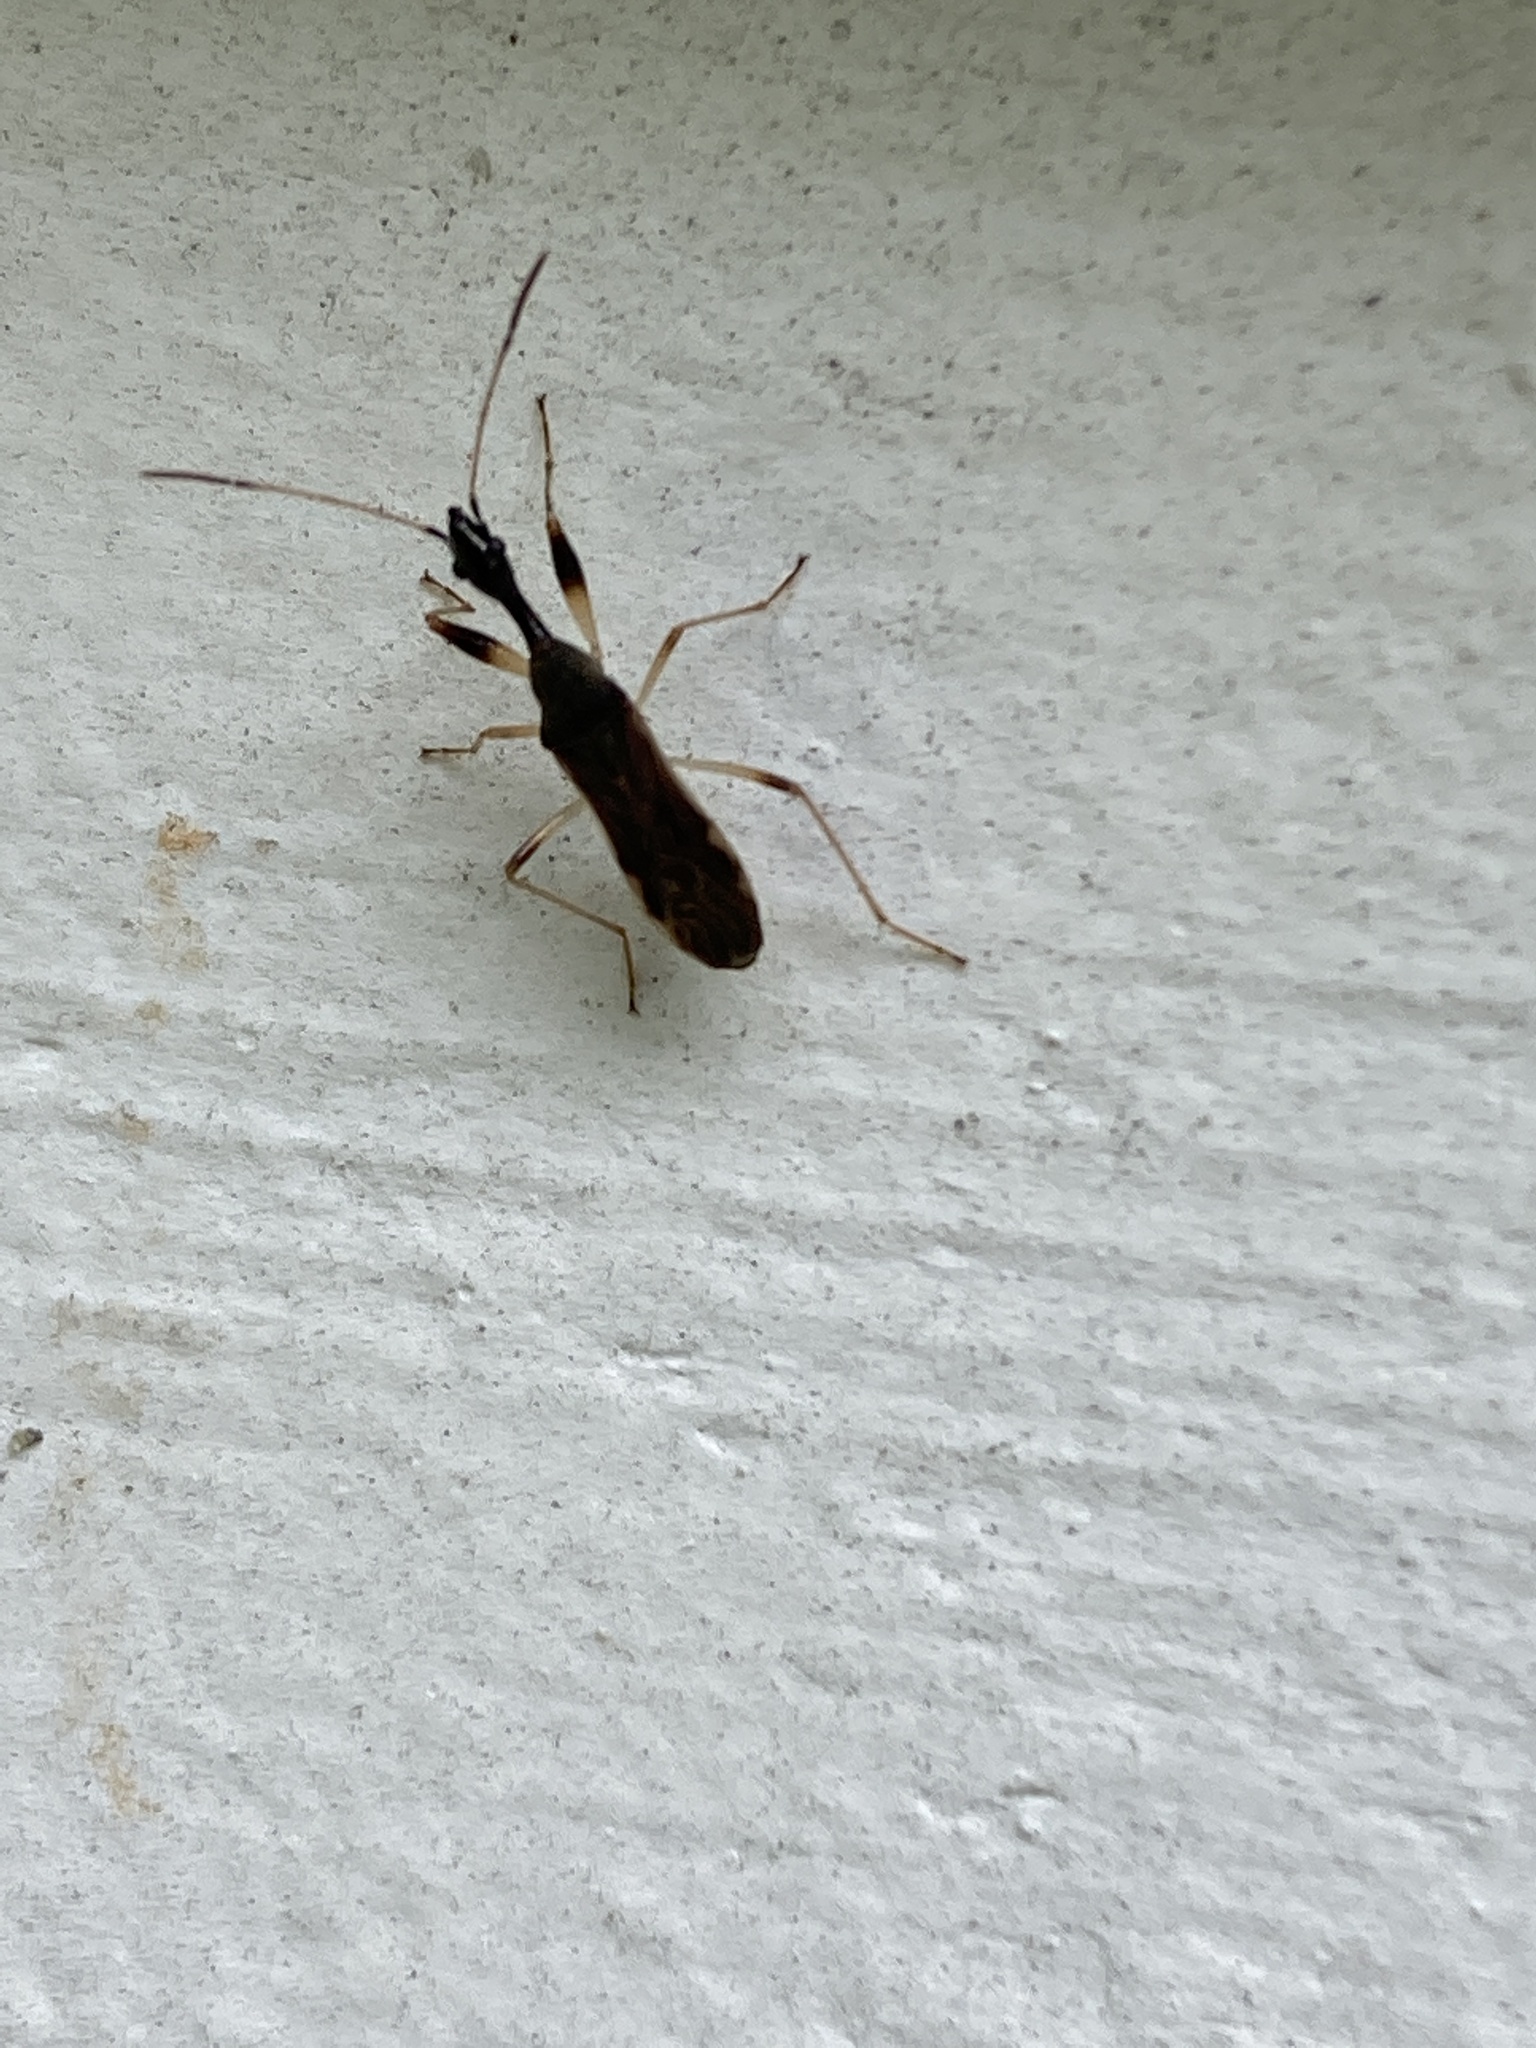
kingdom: Animalia
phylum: Arthropoda
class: Insecta
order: Hemiptera
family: Rhyparochromidae
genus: Myodocha
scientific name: Myodocha serripes
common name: Long-necked seed bug
